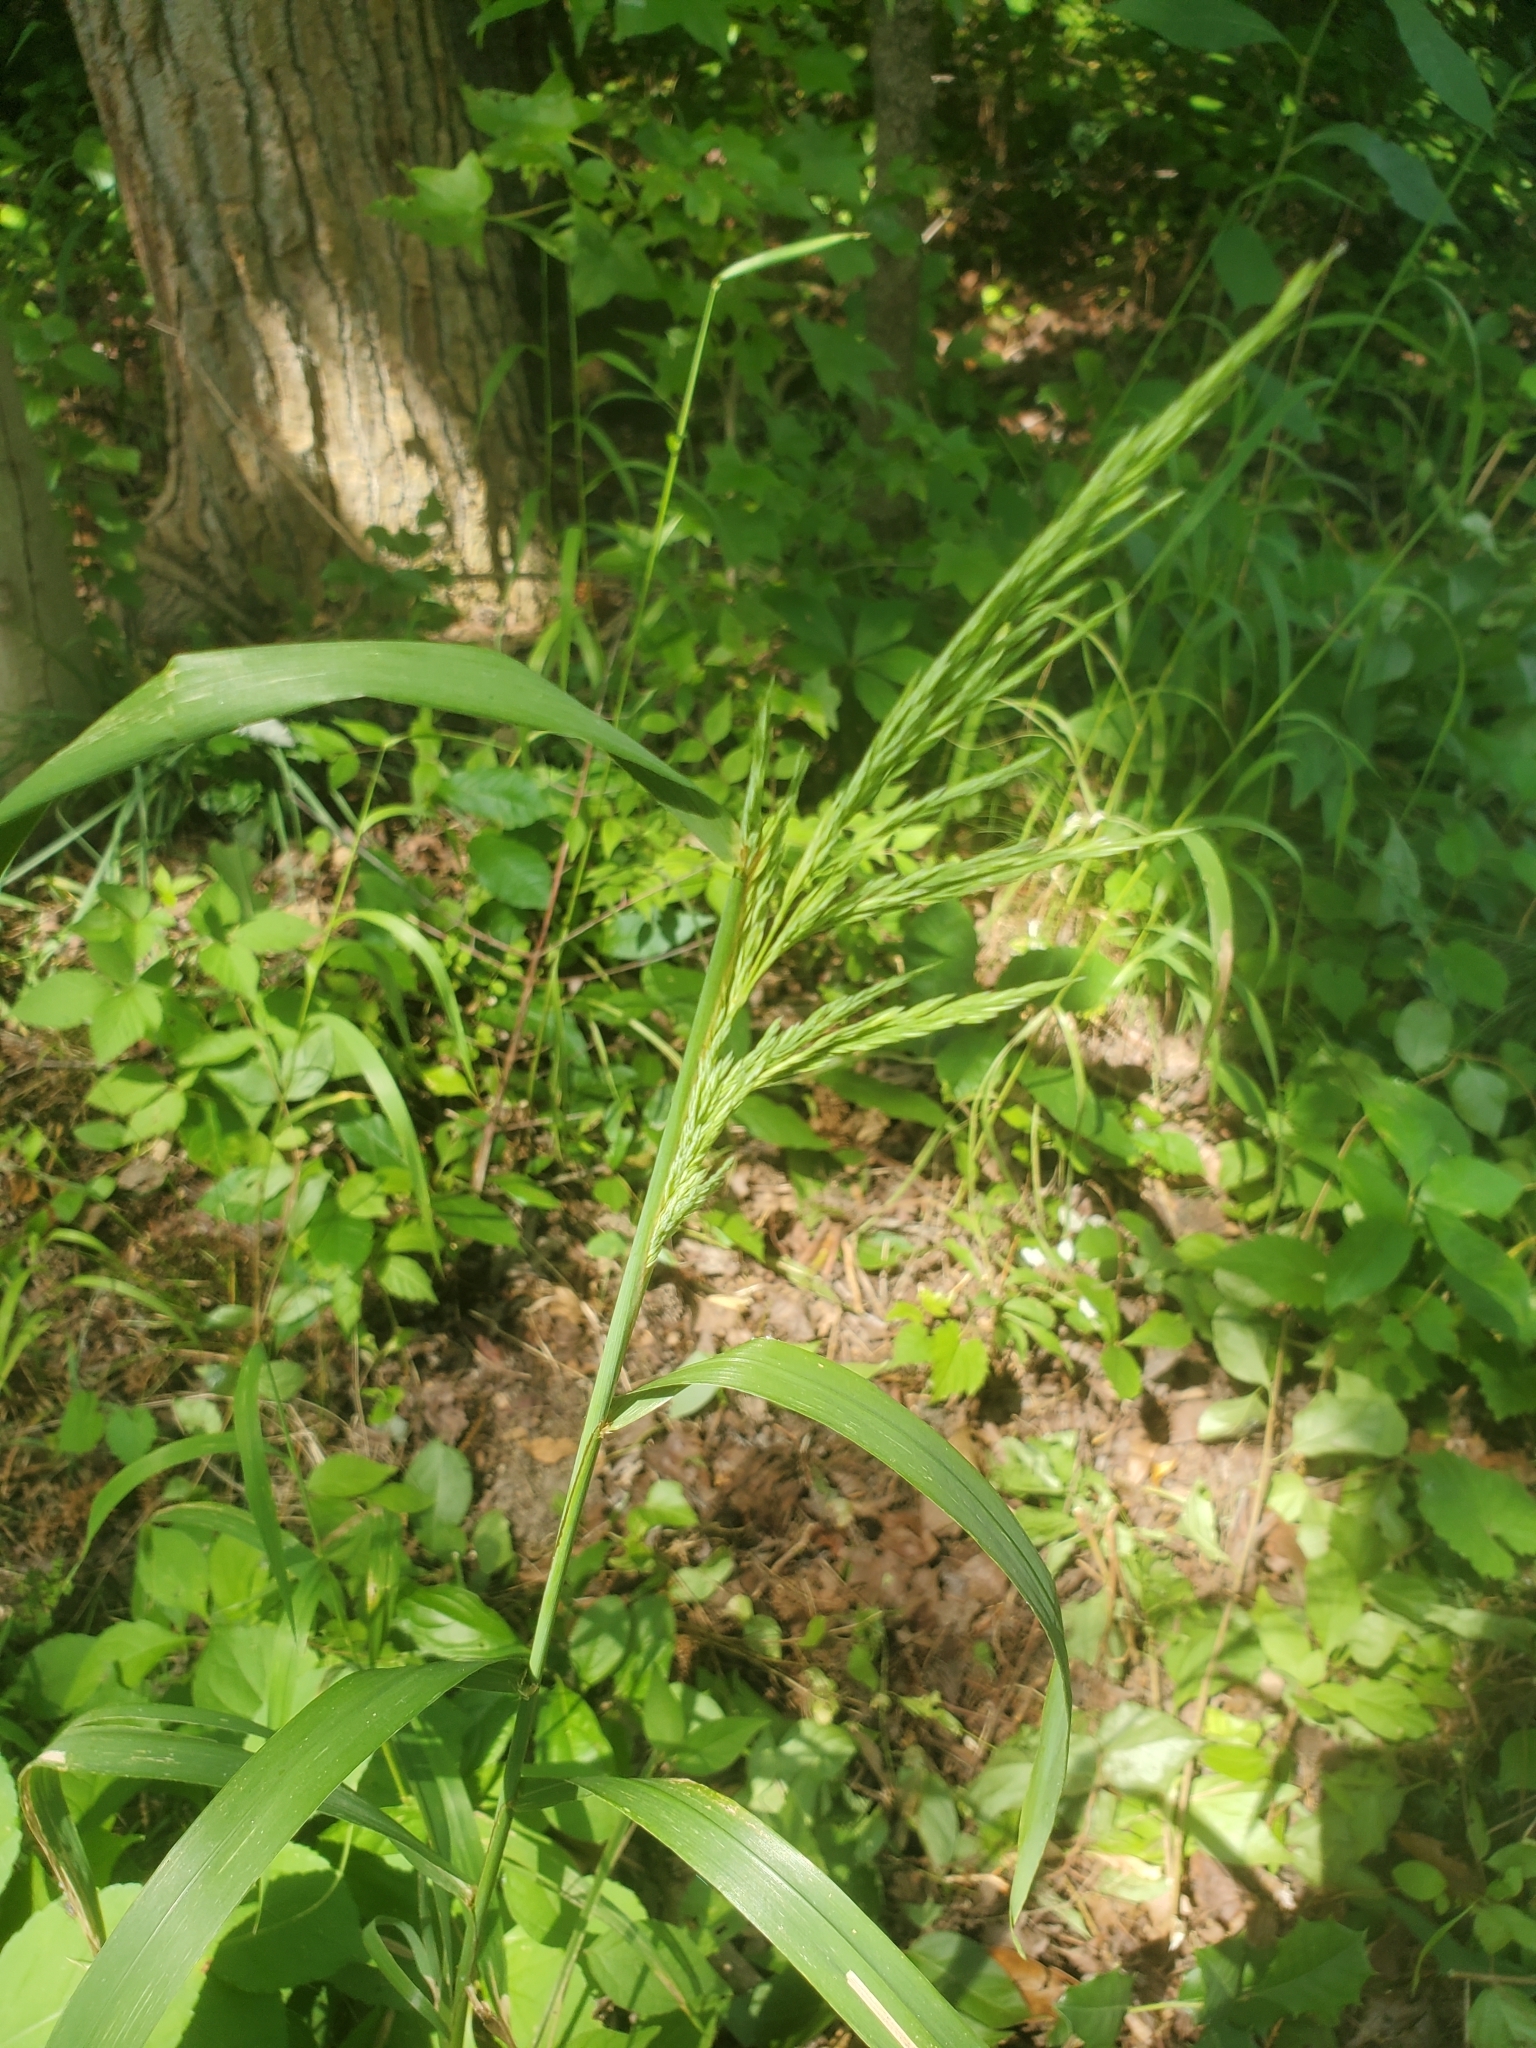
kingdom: Plantae
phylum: Tracheophyta
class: Liliopsida
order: Poales
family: Poaceae
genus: Cinna
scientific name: Cinna arundinacea
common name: Stout woodreed
